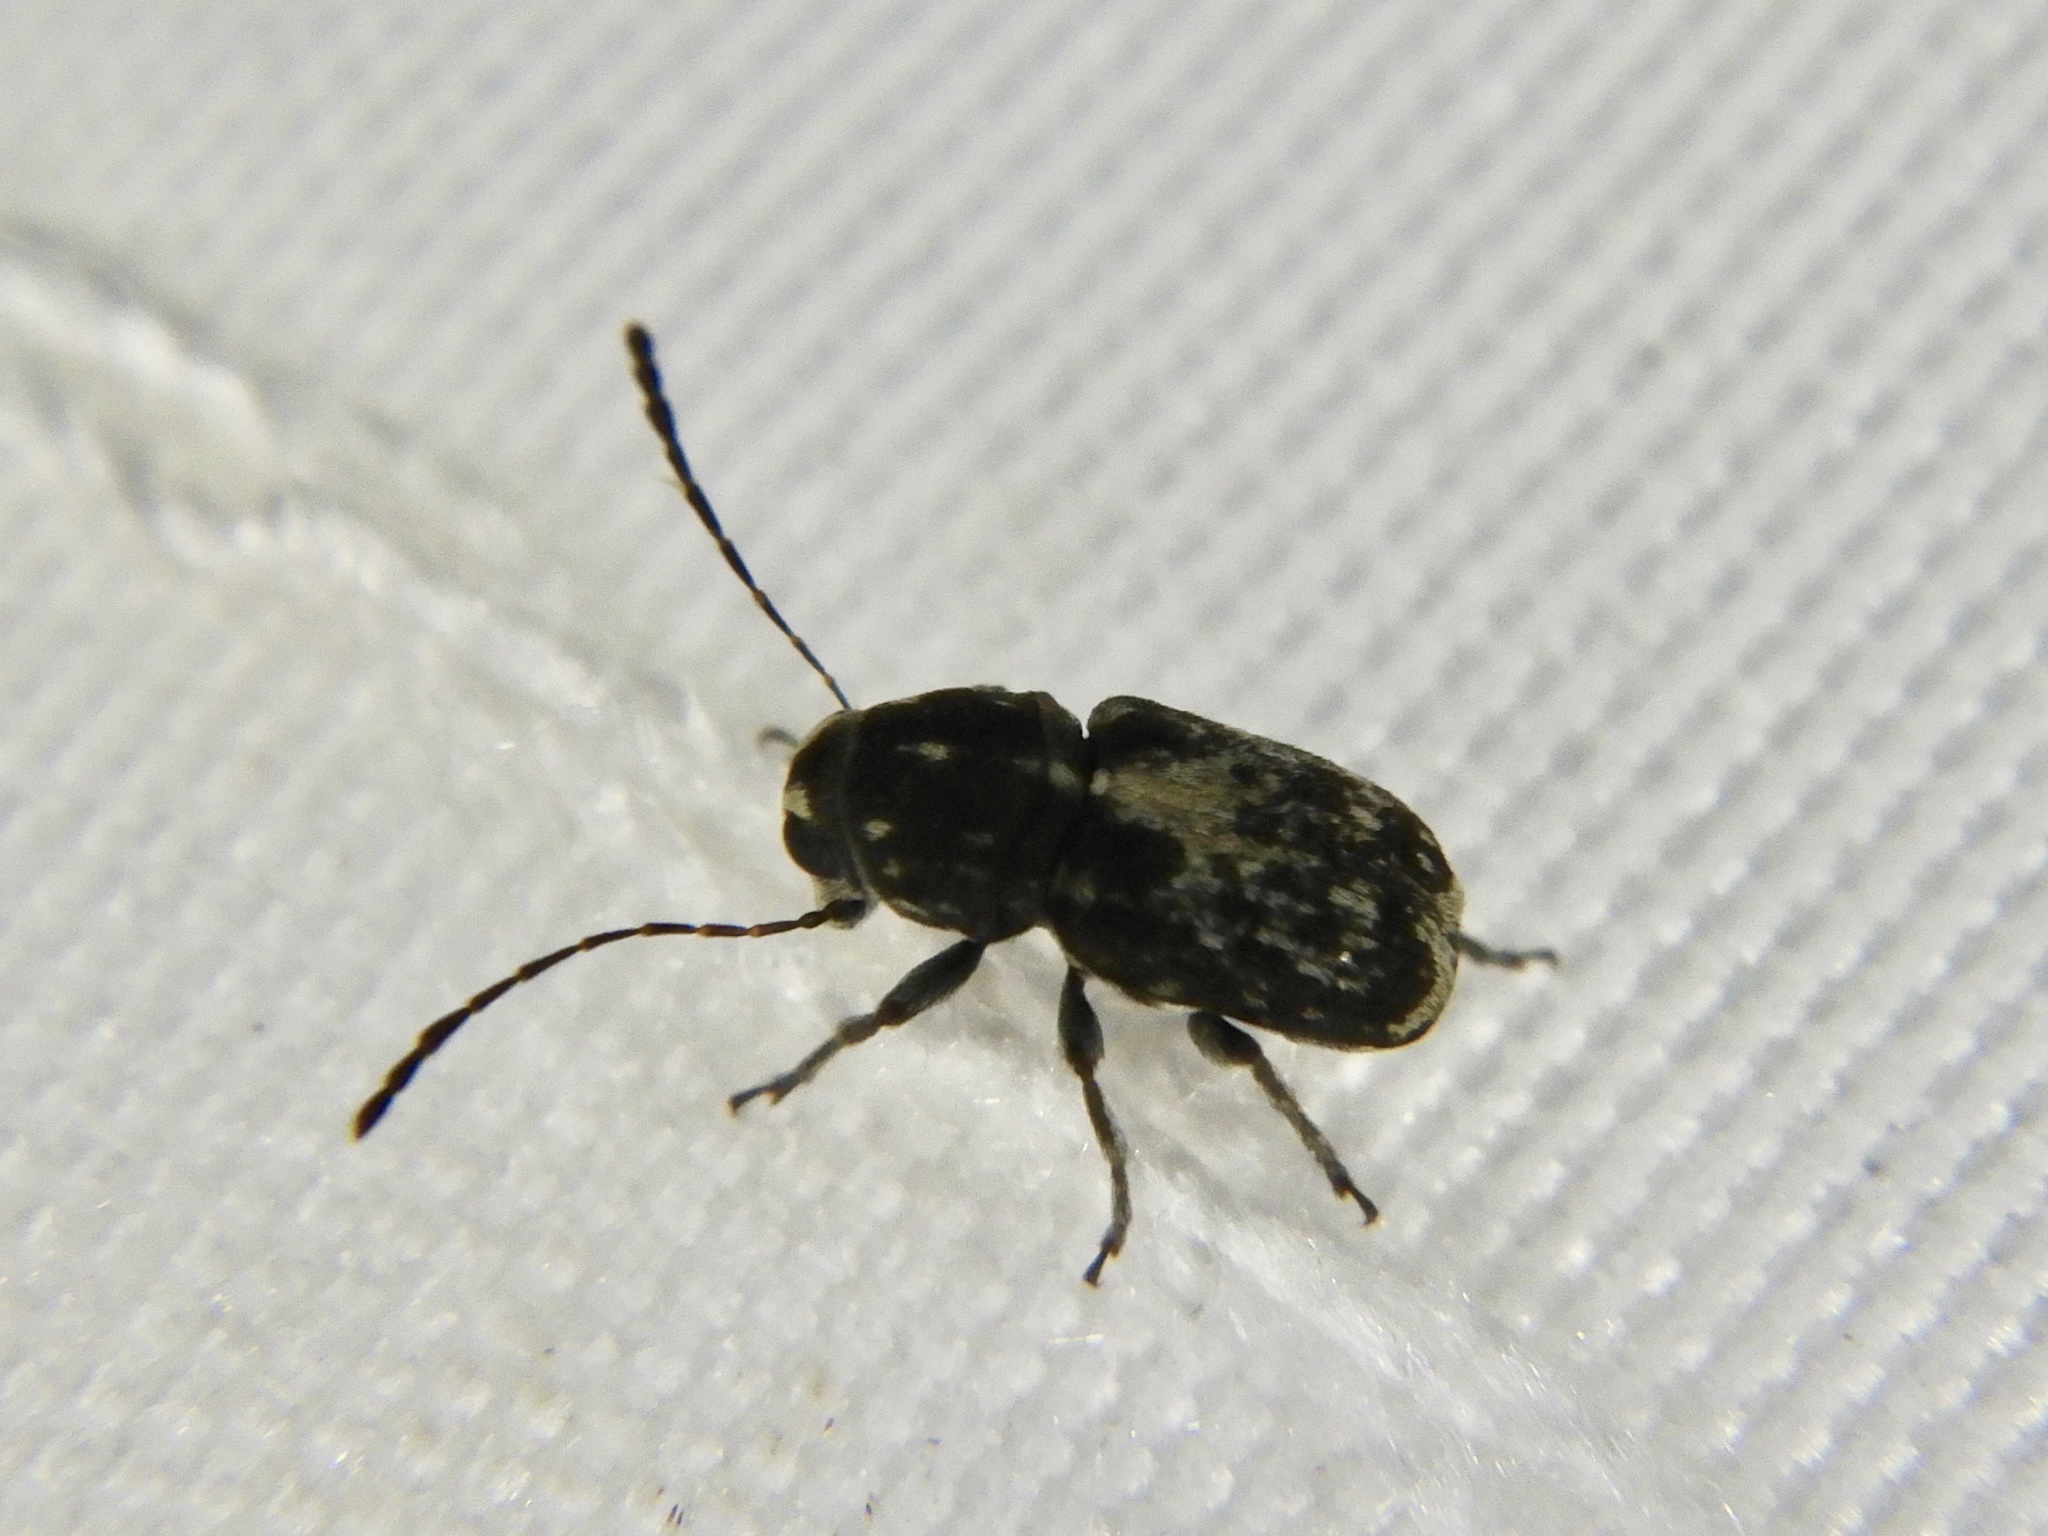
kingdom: Animalia
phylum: Arthropoda
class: Insecta
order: Coleoptera
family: Anthribidae
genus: Rhaphitropis
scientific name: Rhaphitropis guttifer
